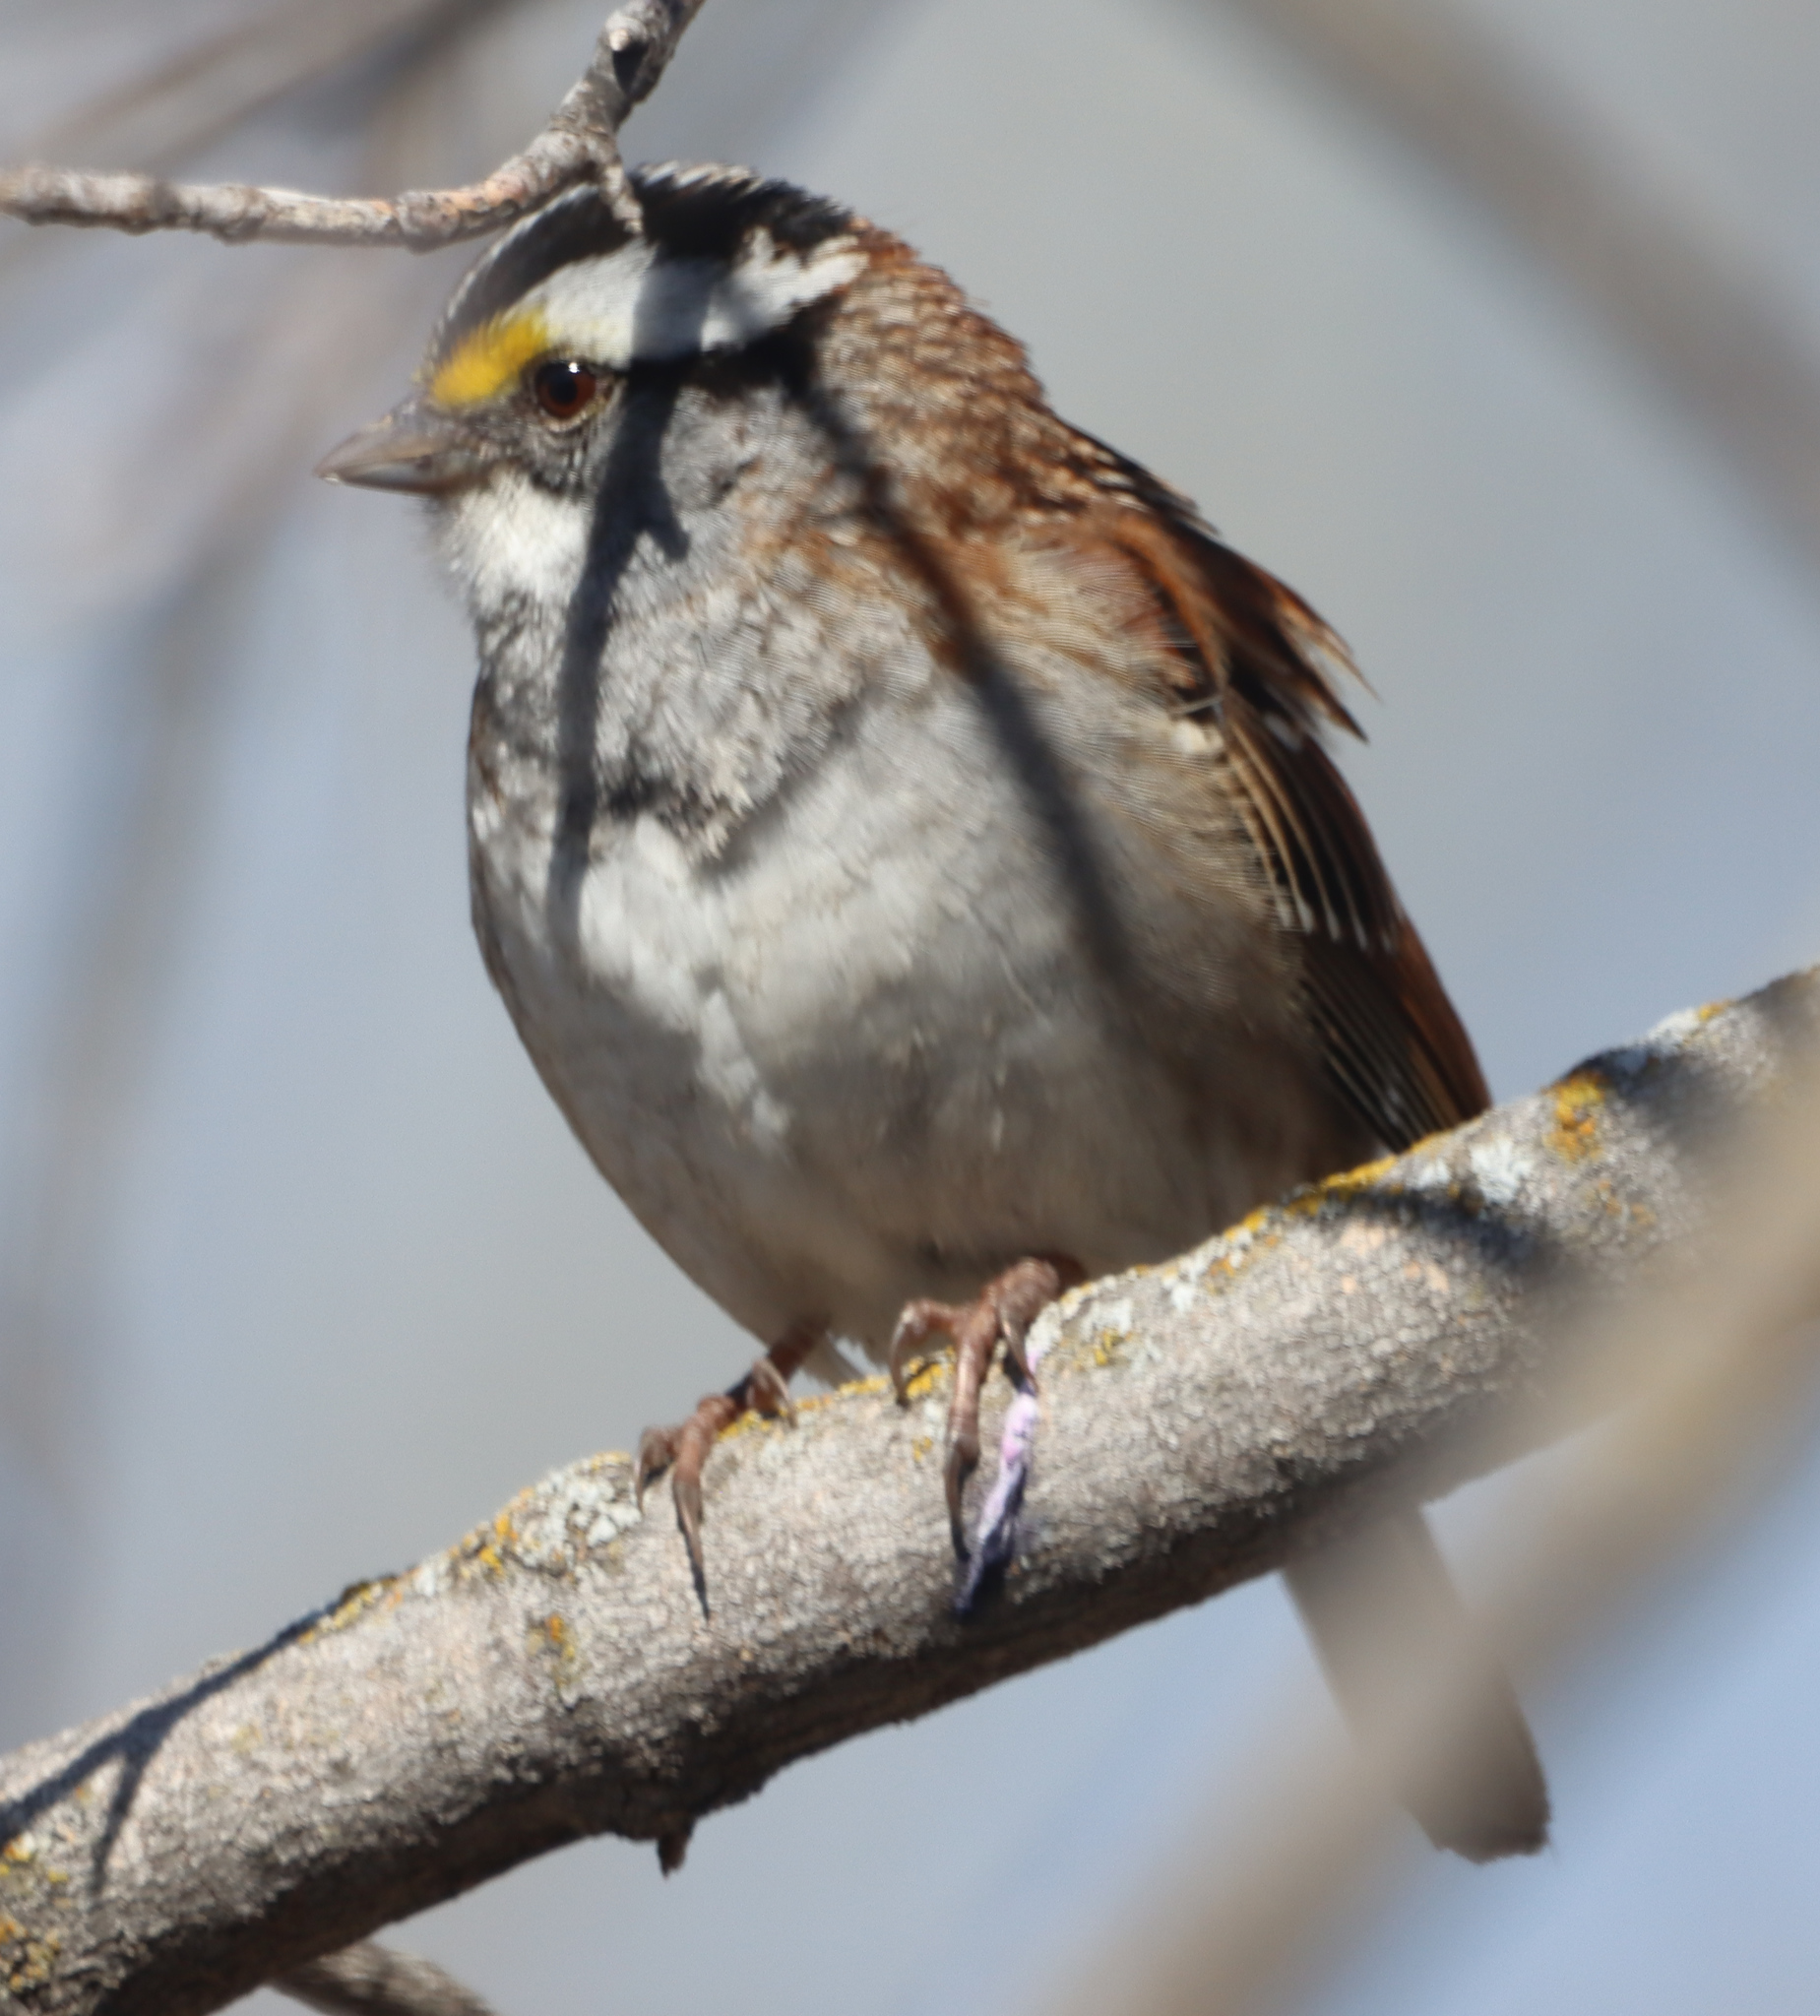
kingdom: Animalia
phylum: Chordata
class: Aves
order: Passeriformes
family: Passerellidae
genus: Zonotrichia
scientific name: Zonotrichia albicollis
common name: White-throated sparrow
